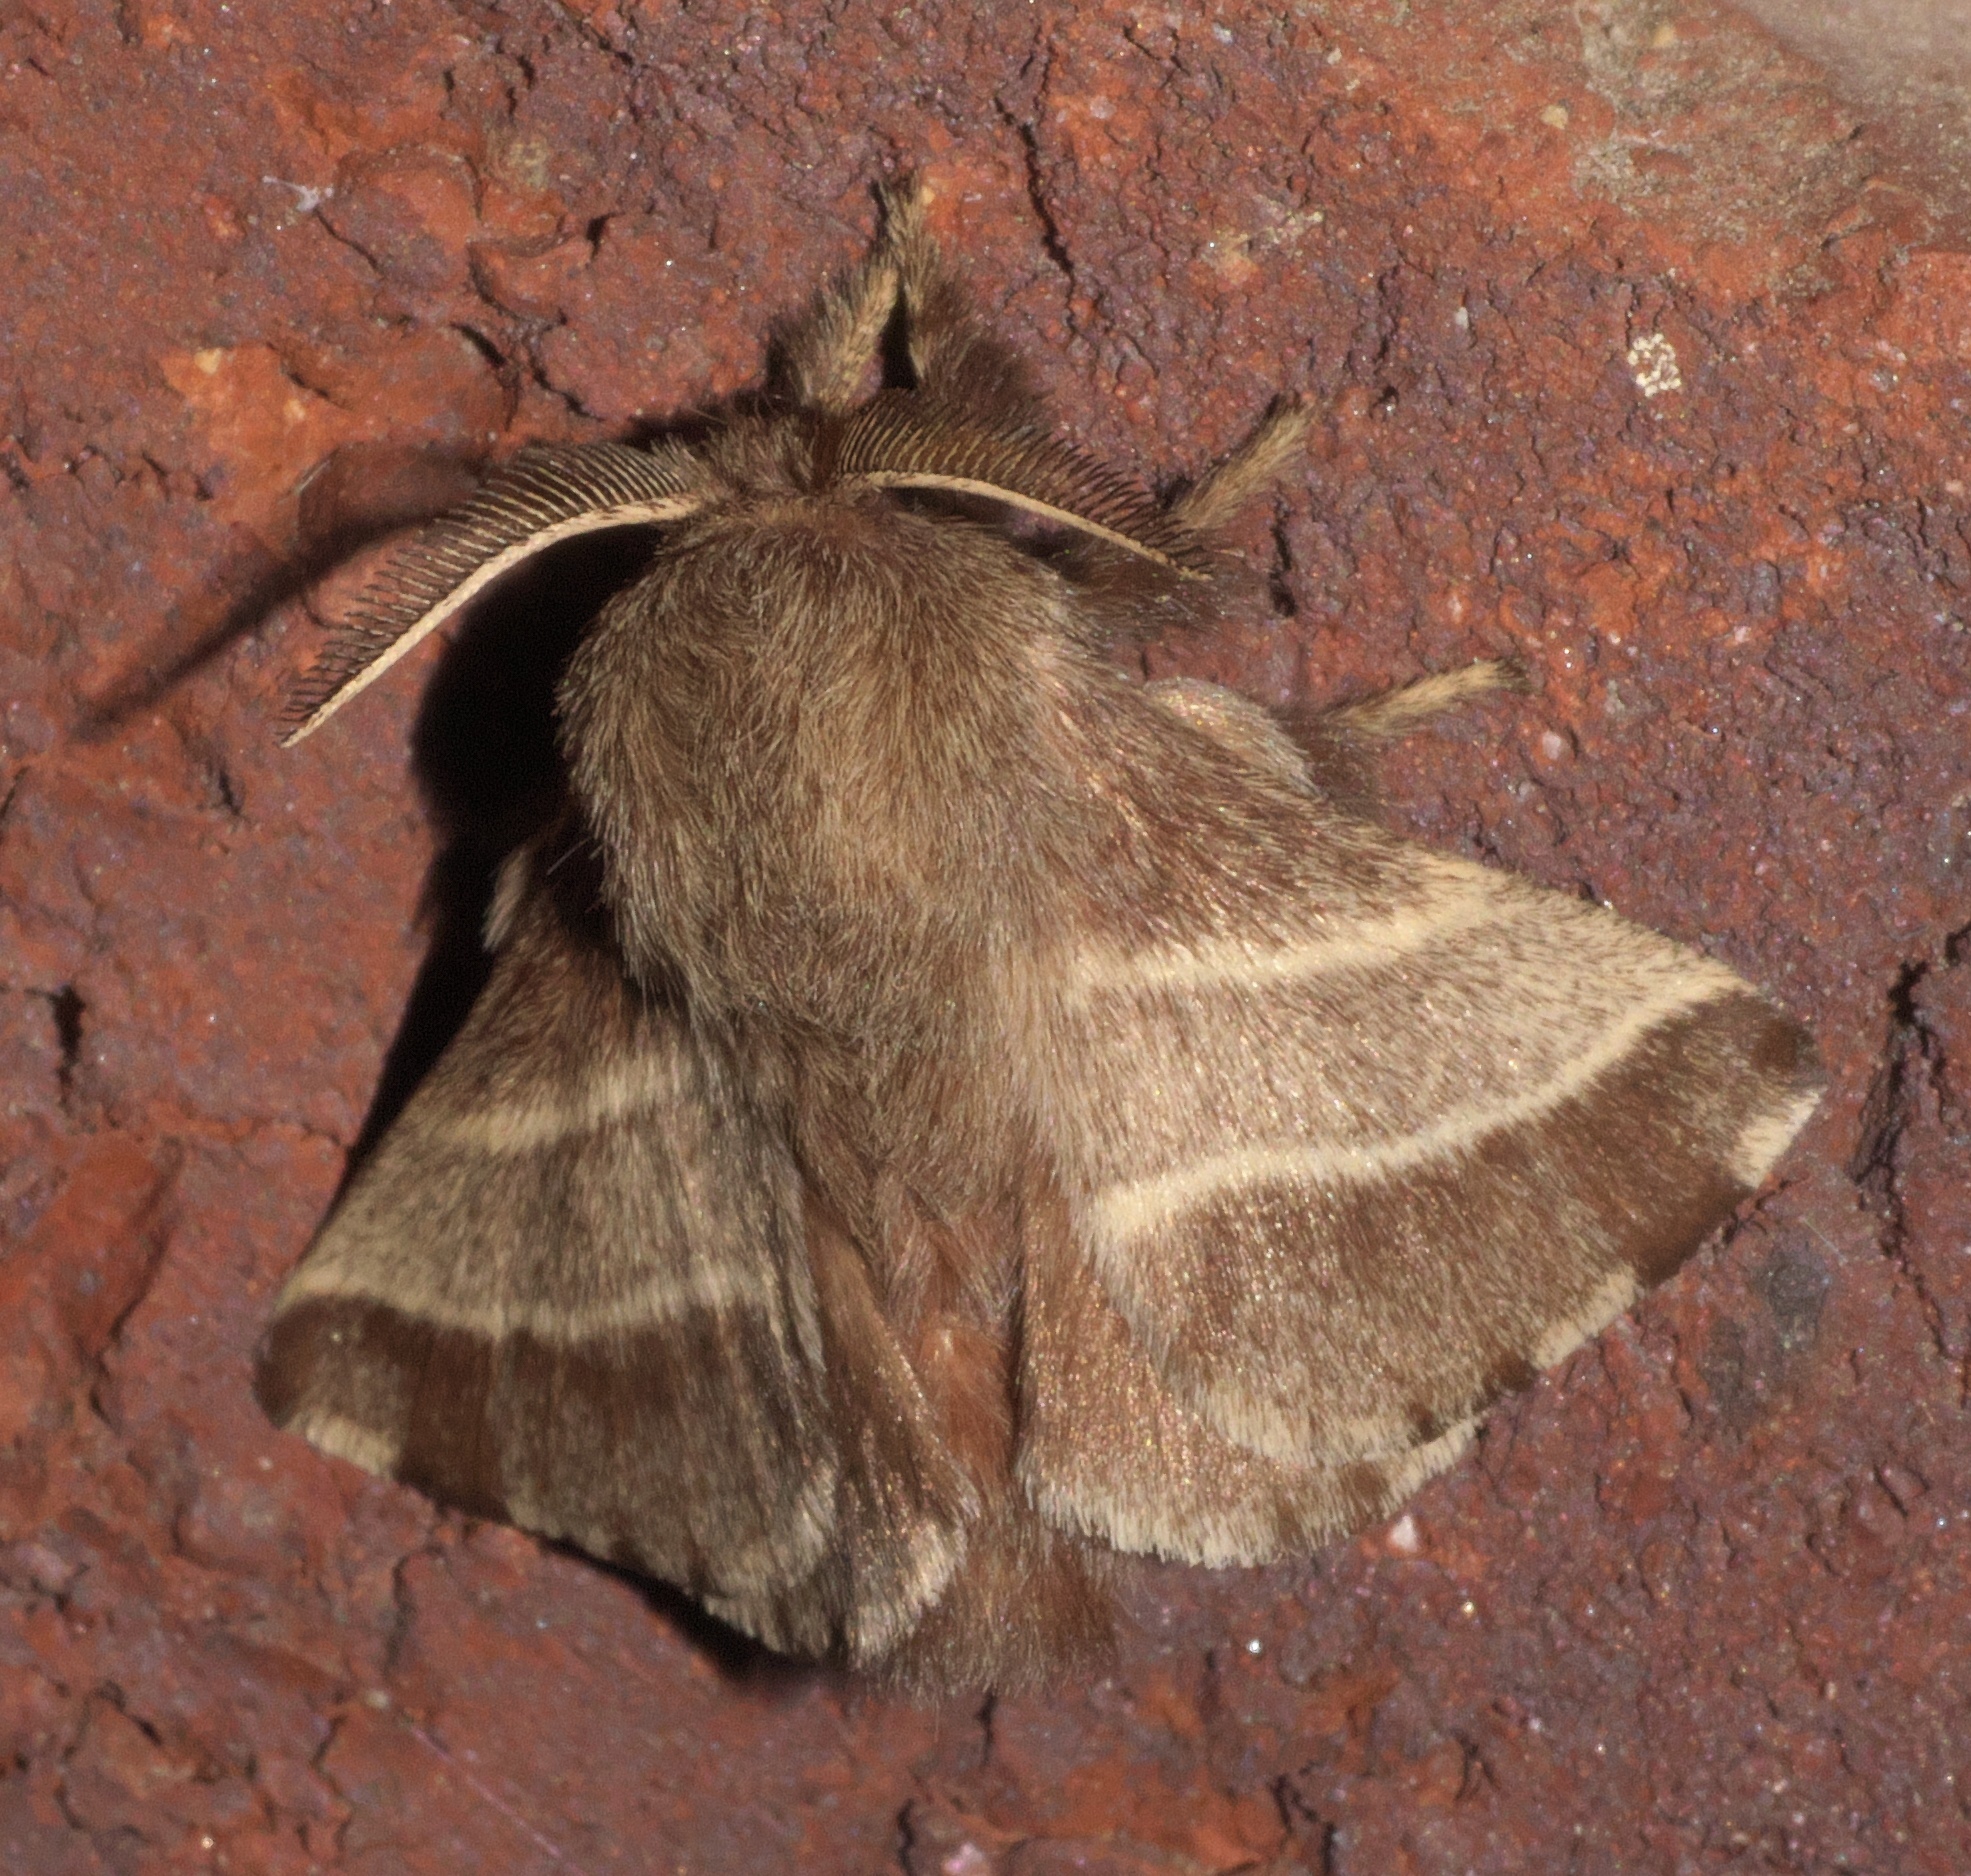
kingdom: Animalia
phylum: Arthropoda
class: Insecta
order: Lepidoptera
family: Lasiocampidae
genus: Malacosoma
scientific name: Malacosoma americana
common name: Eastern tent caterpillar moth
